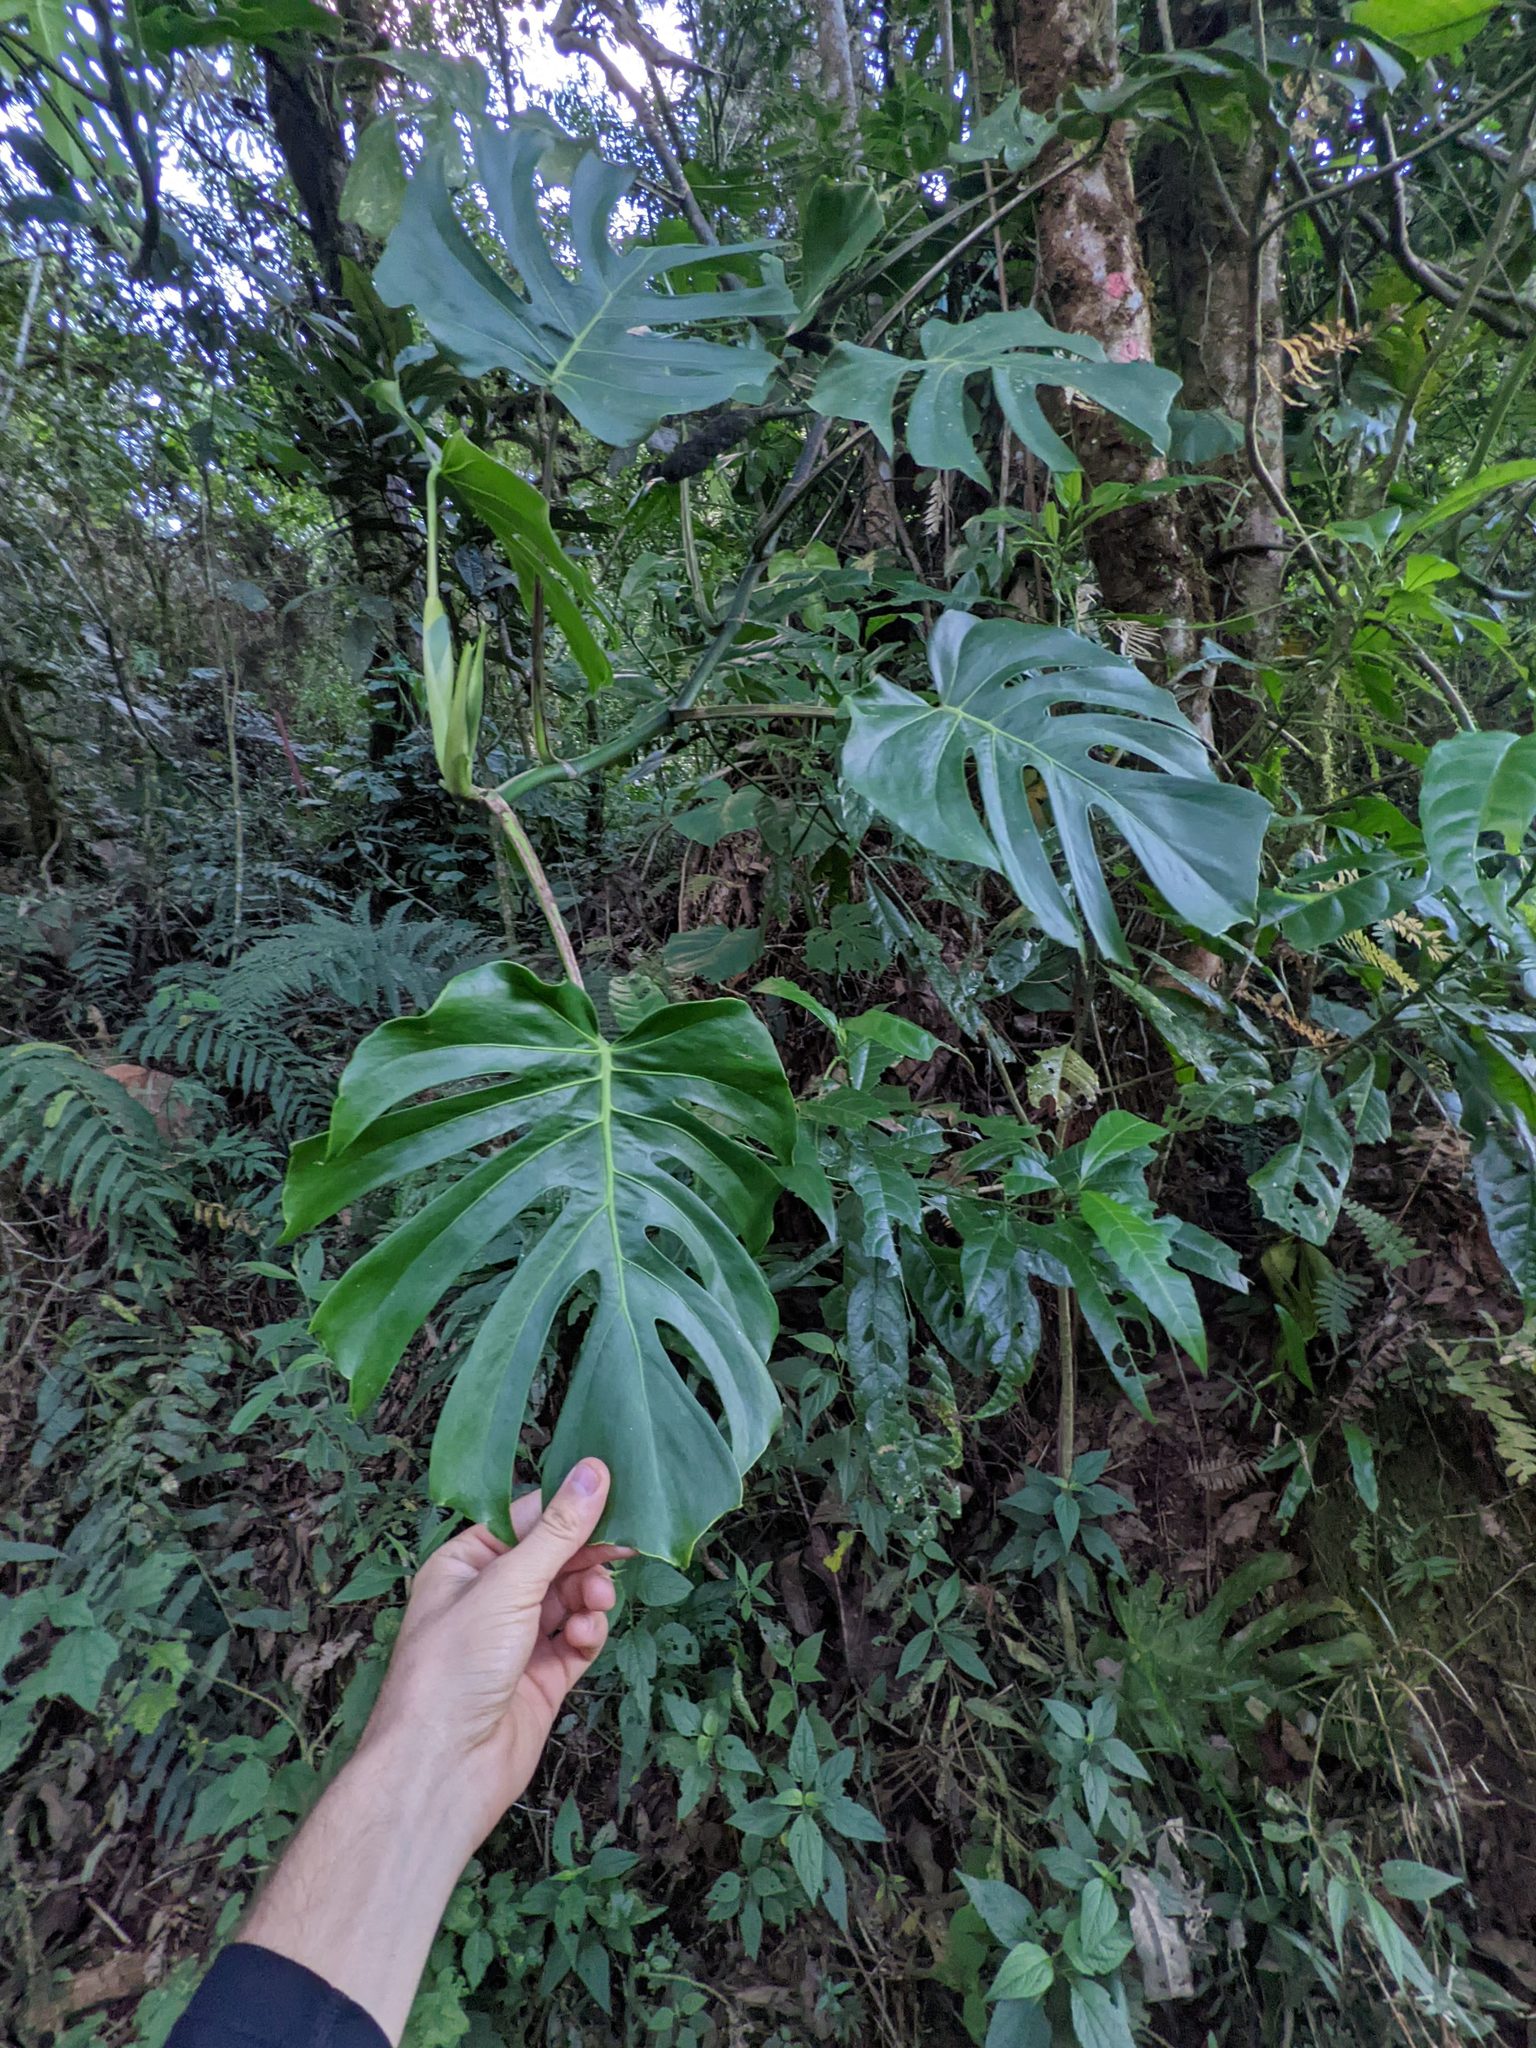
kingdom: Plantae
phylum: Tracheophyta
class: Liliopsida
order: Alismatales
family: Araceae
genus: Monstera
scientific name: Monstera tacanaensis
